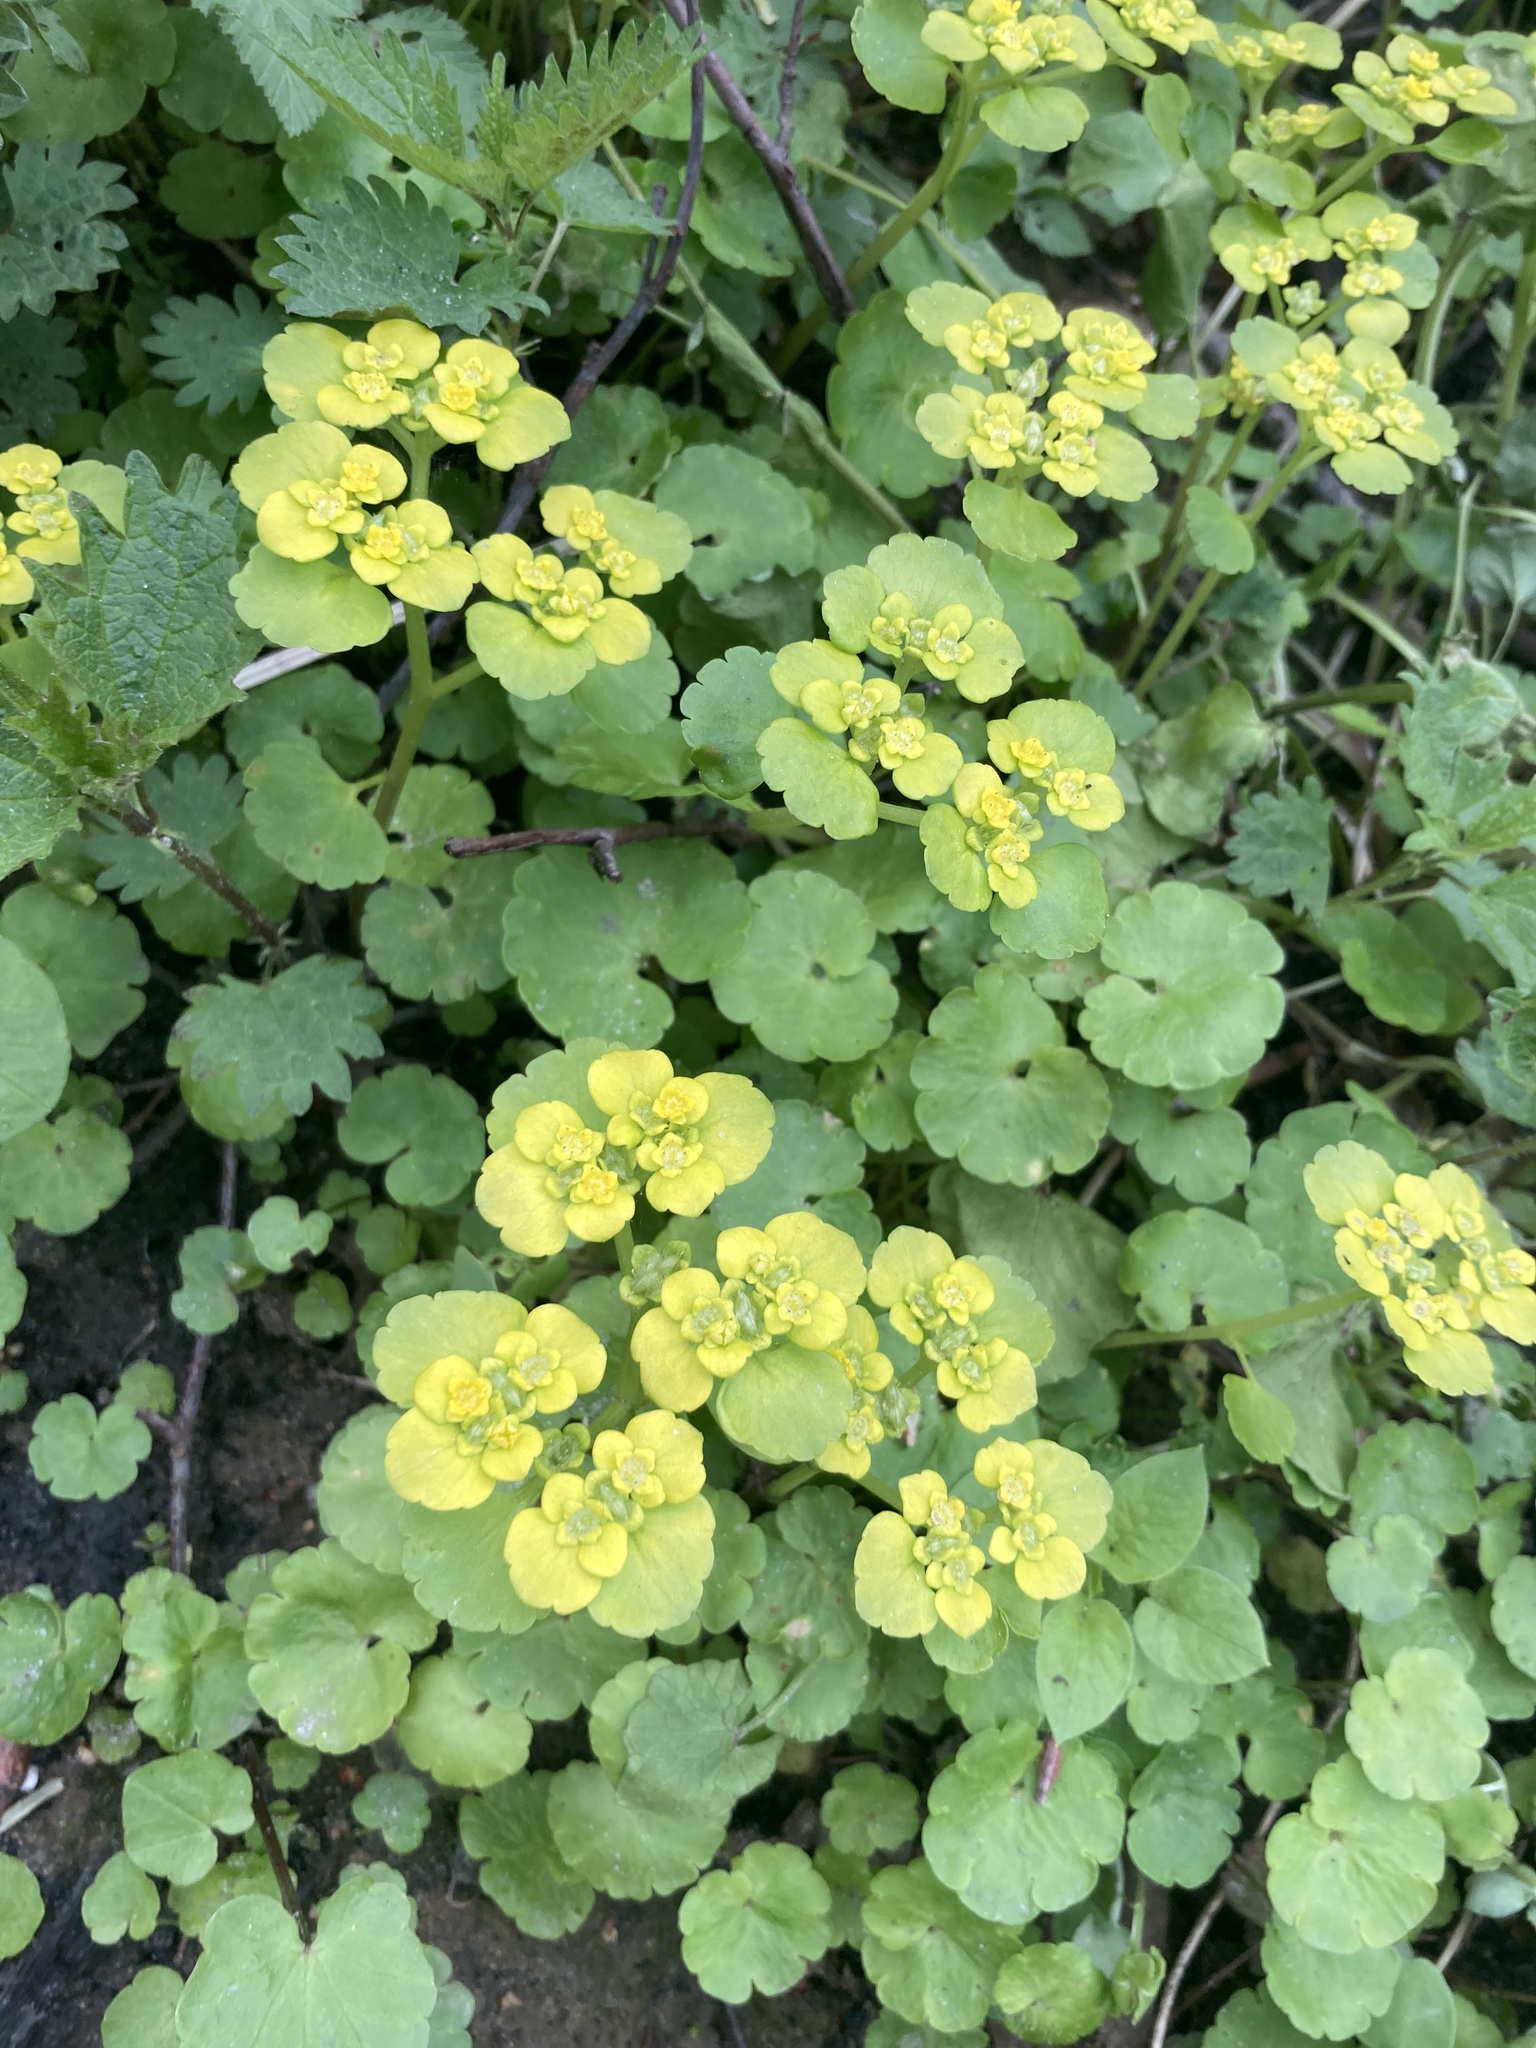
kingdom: Plantae
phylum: Tracheophyta
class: Magnoliopsida
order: Saxifragales
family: Saxifragaceae
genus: Chrysosplenium
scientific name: Chrysosplenium alternifolium
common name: Alternate-leaved golden-saxifrage
